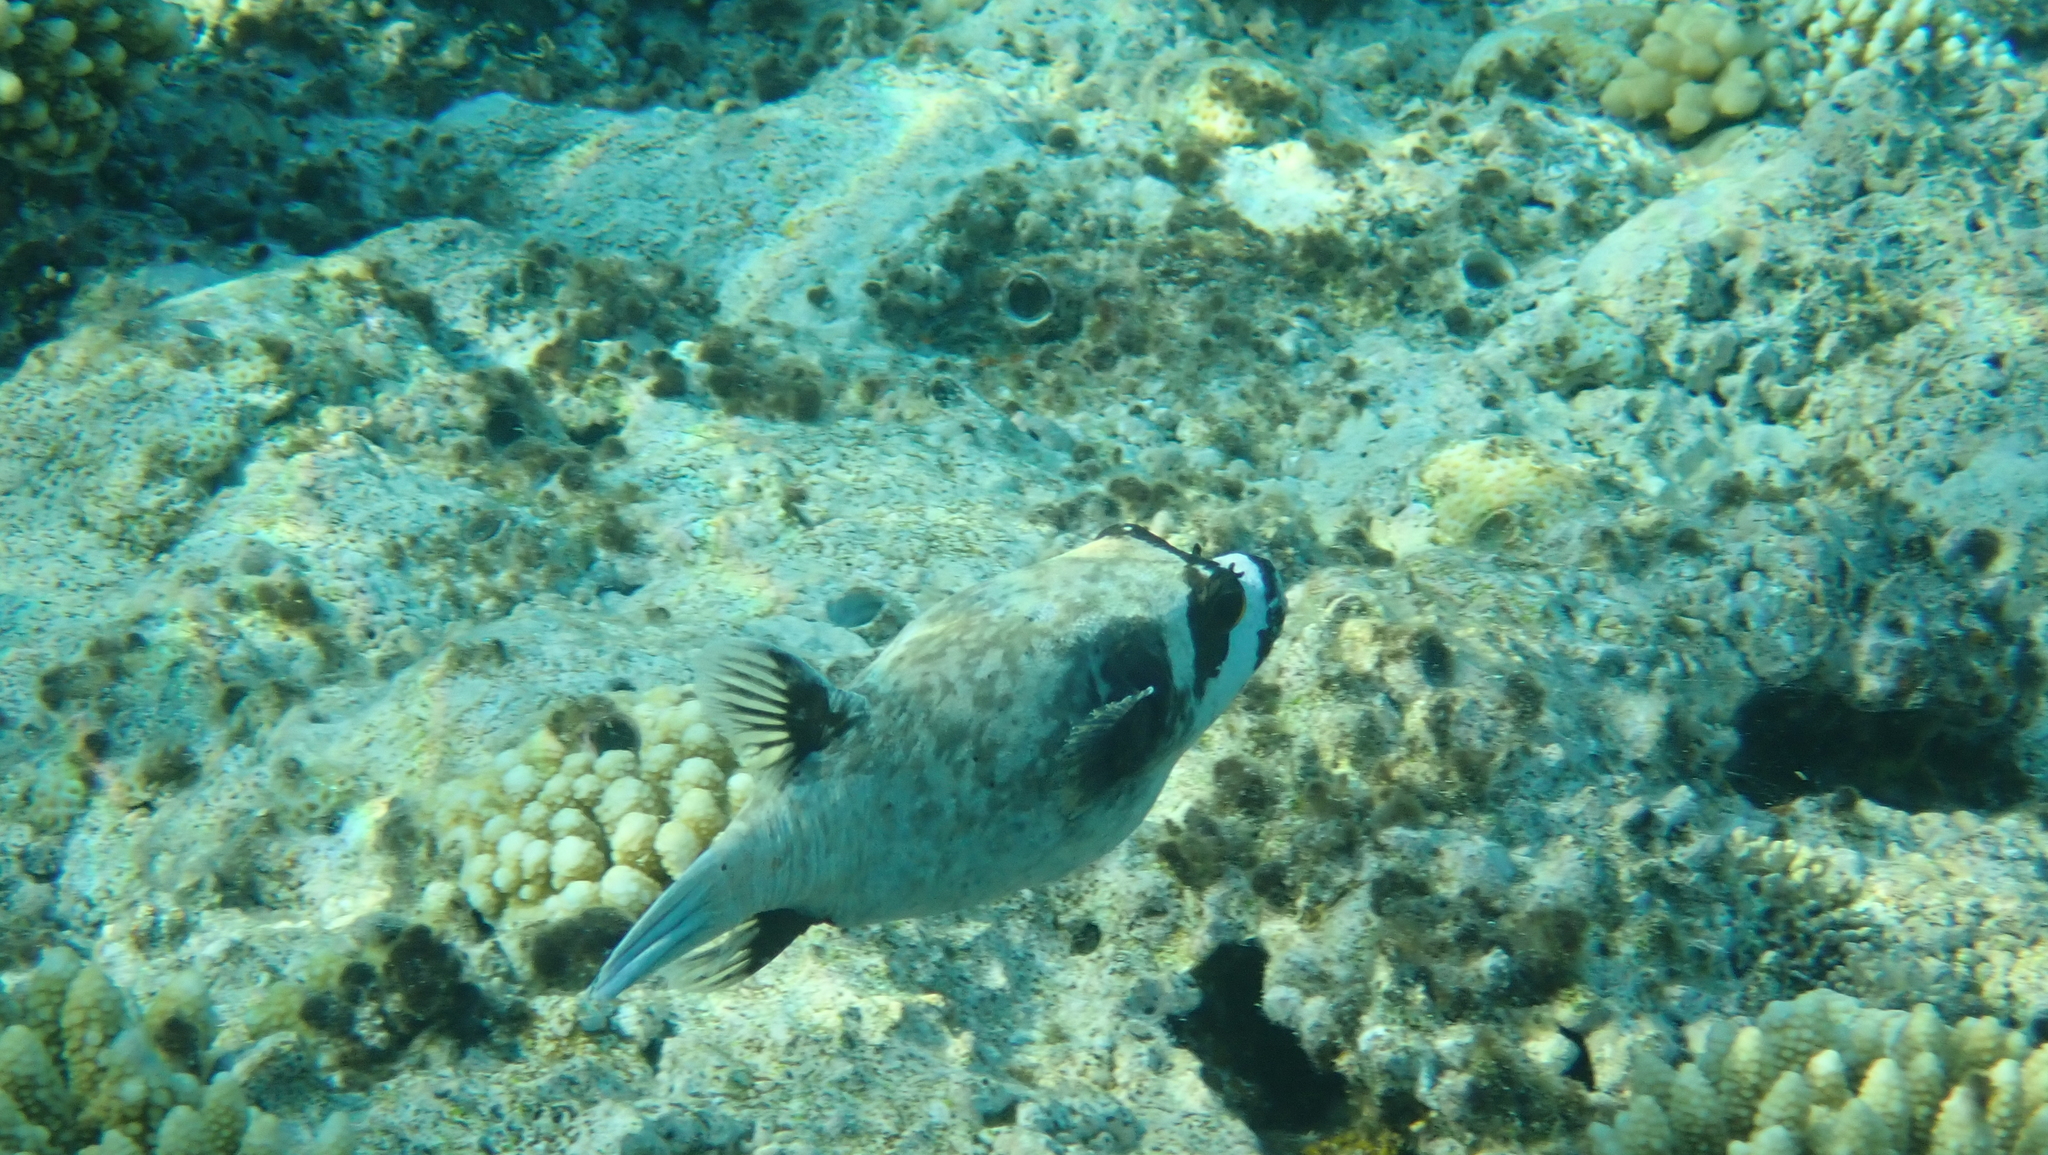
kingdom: Animalia
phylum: Chordata
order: Tetraodontiformes
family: Tetraodontidae
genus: Arothron
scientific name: Arothron diadematus
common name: Masked puffer
